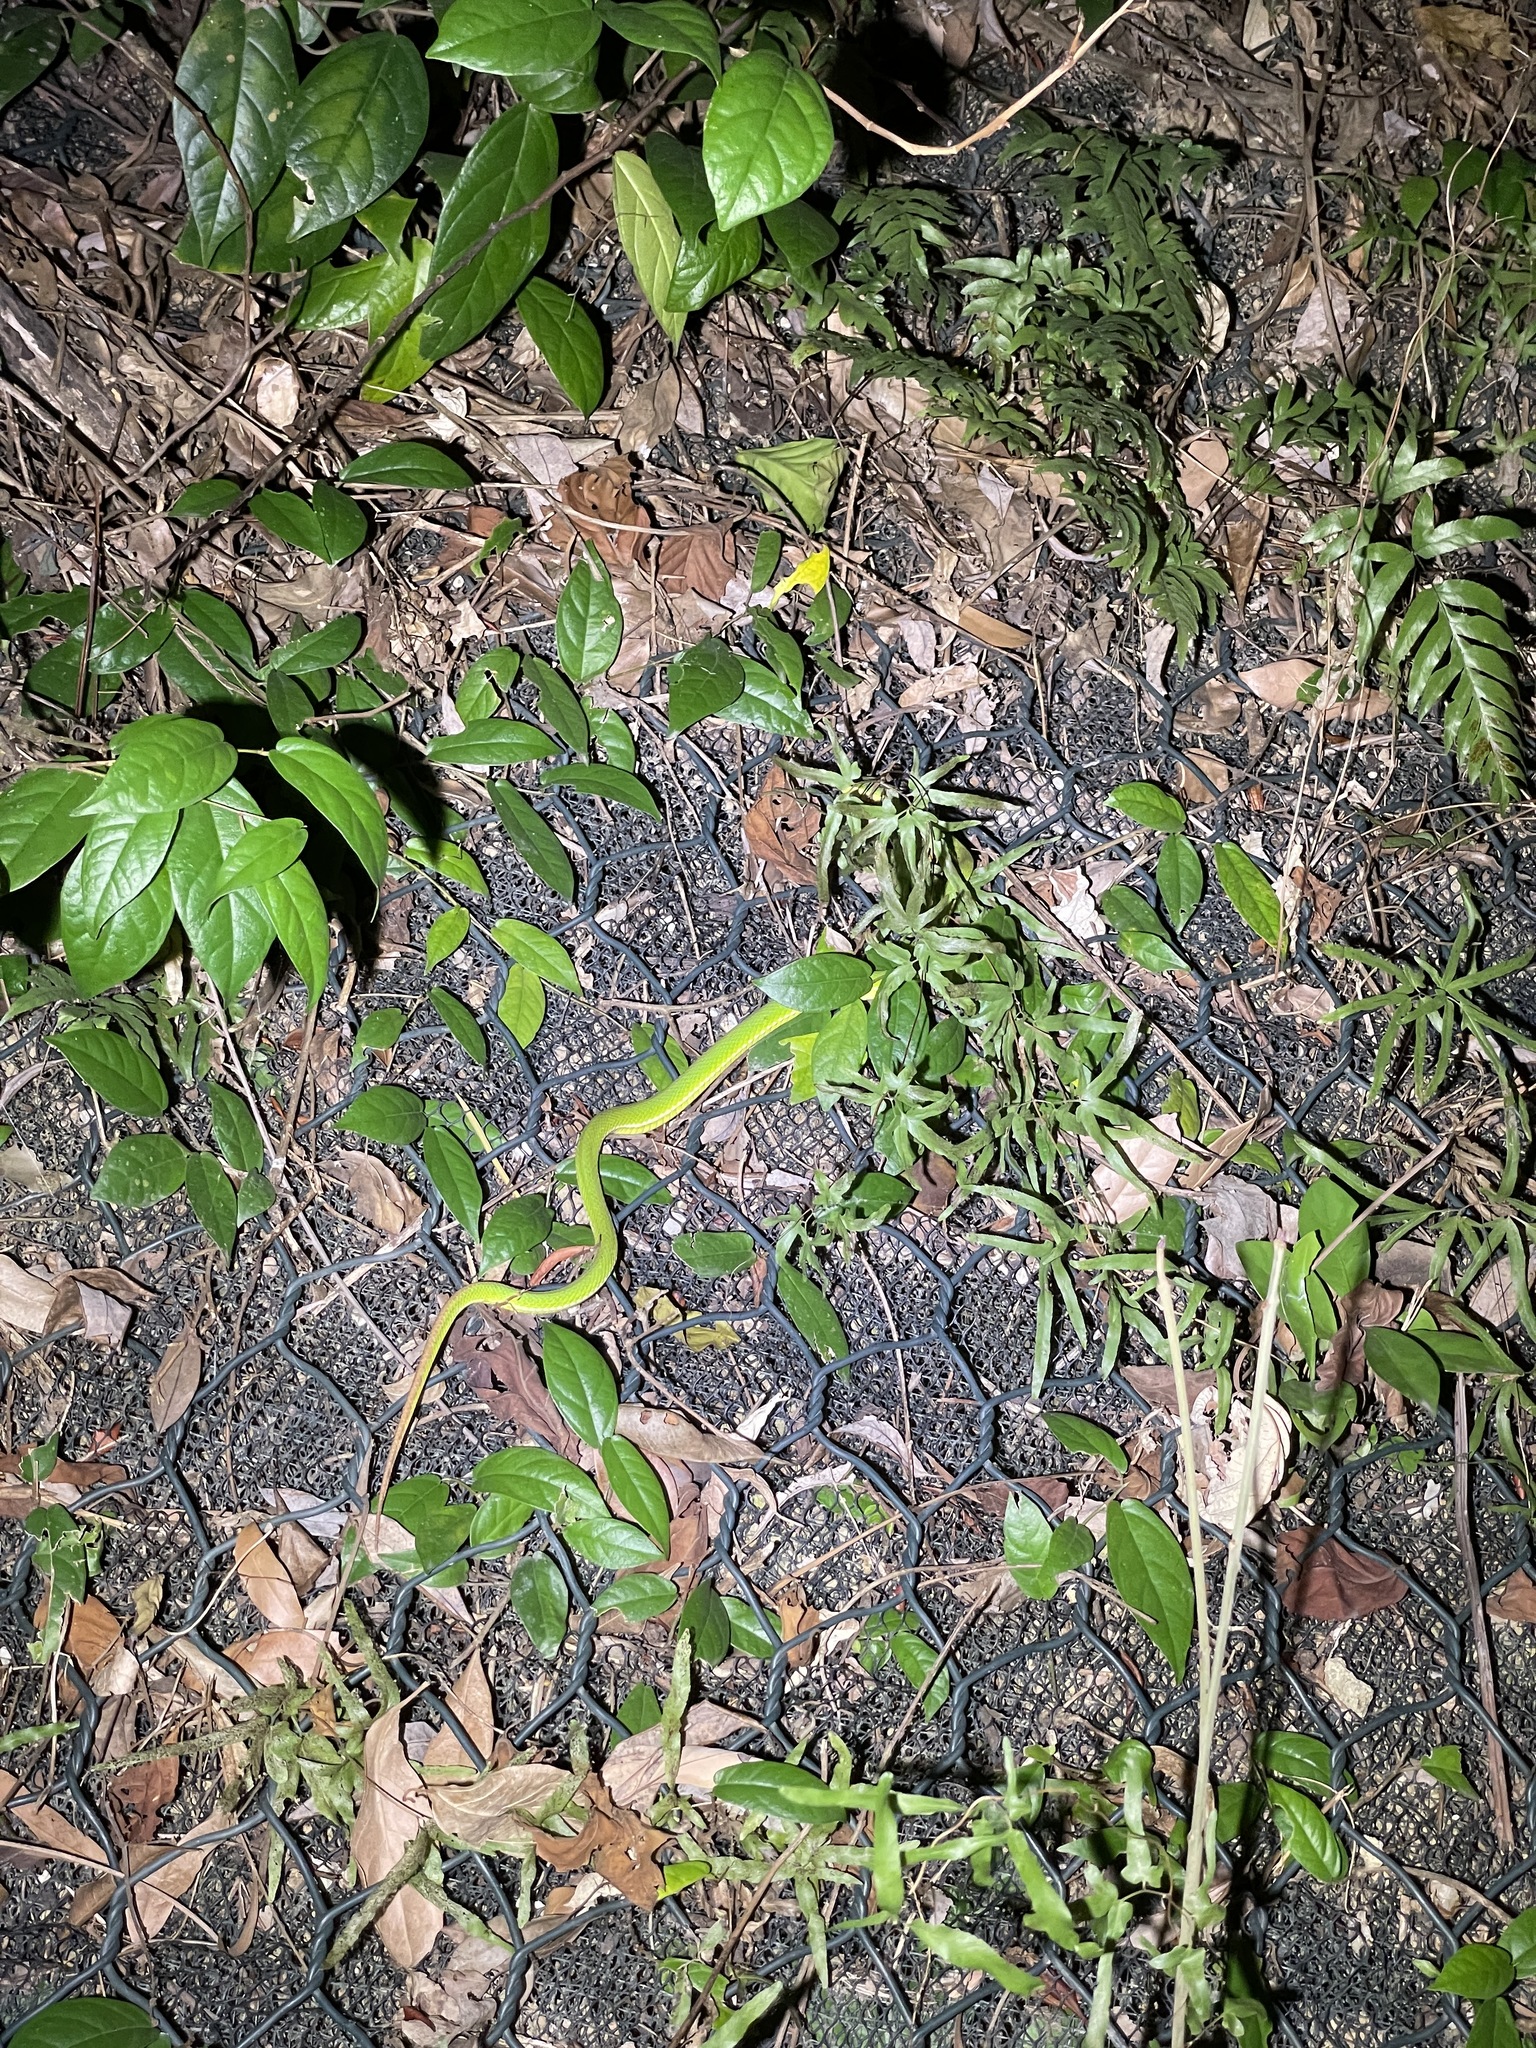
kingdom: Animalia
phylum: Chordata
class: Squamata
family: Viperidae
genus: Trimeresurus
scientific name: Trimeresurus albolabris
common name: White-lipped pitviper
